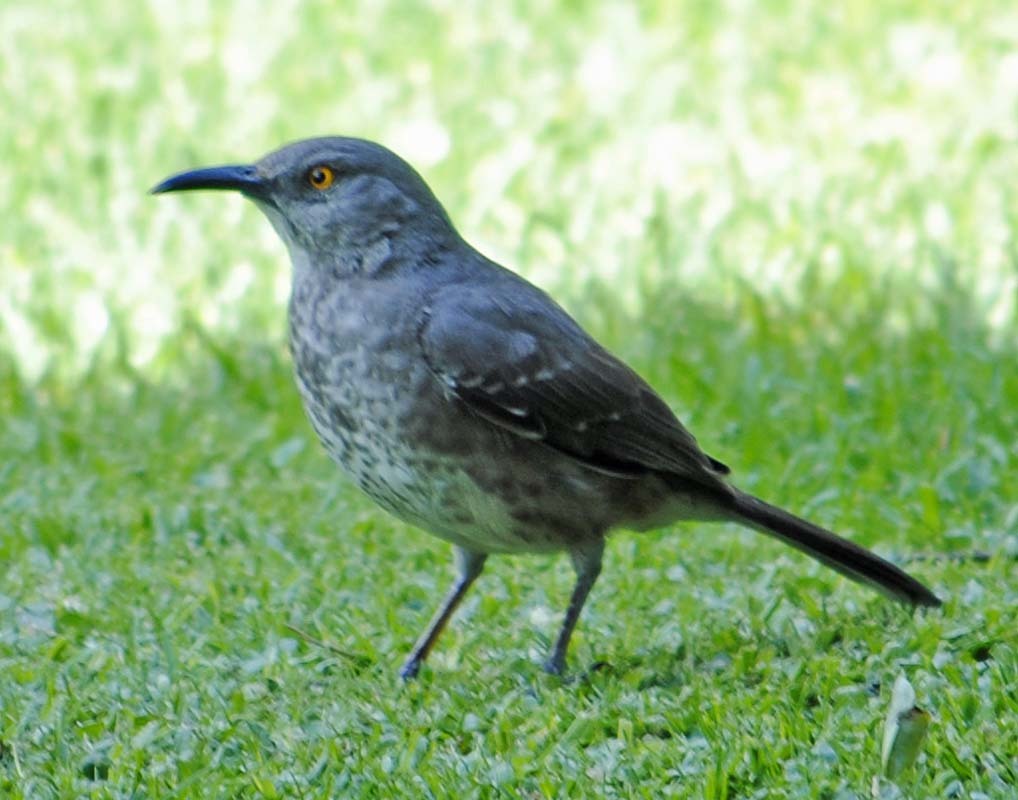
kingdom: Animalia
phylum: Chordata
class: Aves
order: Passeriformes
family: Mimidae
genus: Toxostoma
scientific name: Toxostoma curvirostre
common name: Curve-billed thrasher
